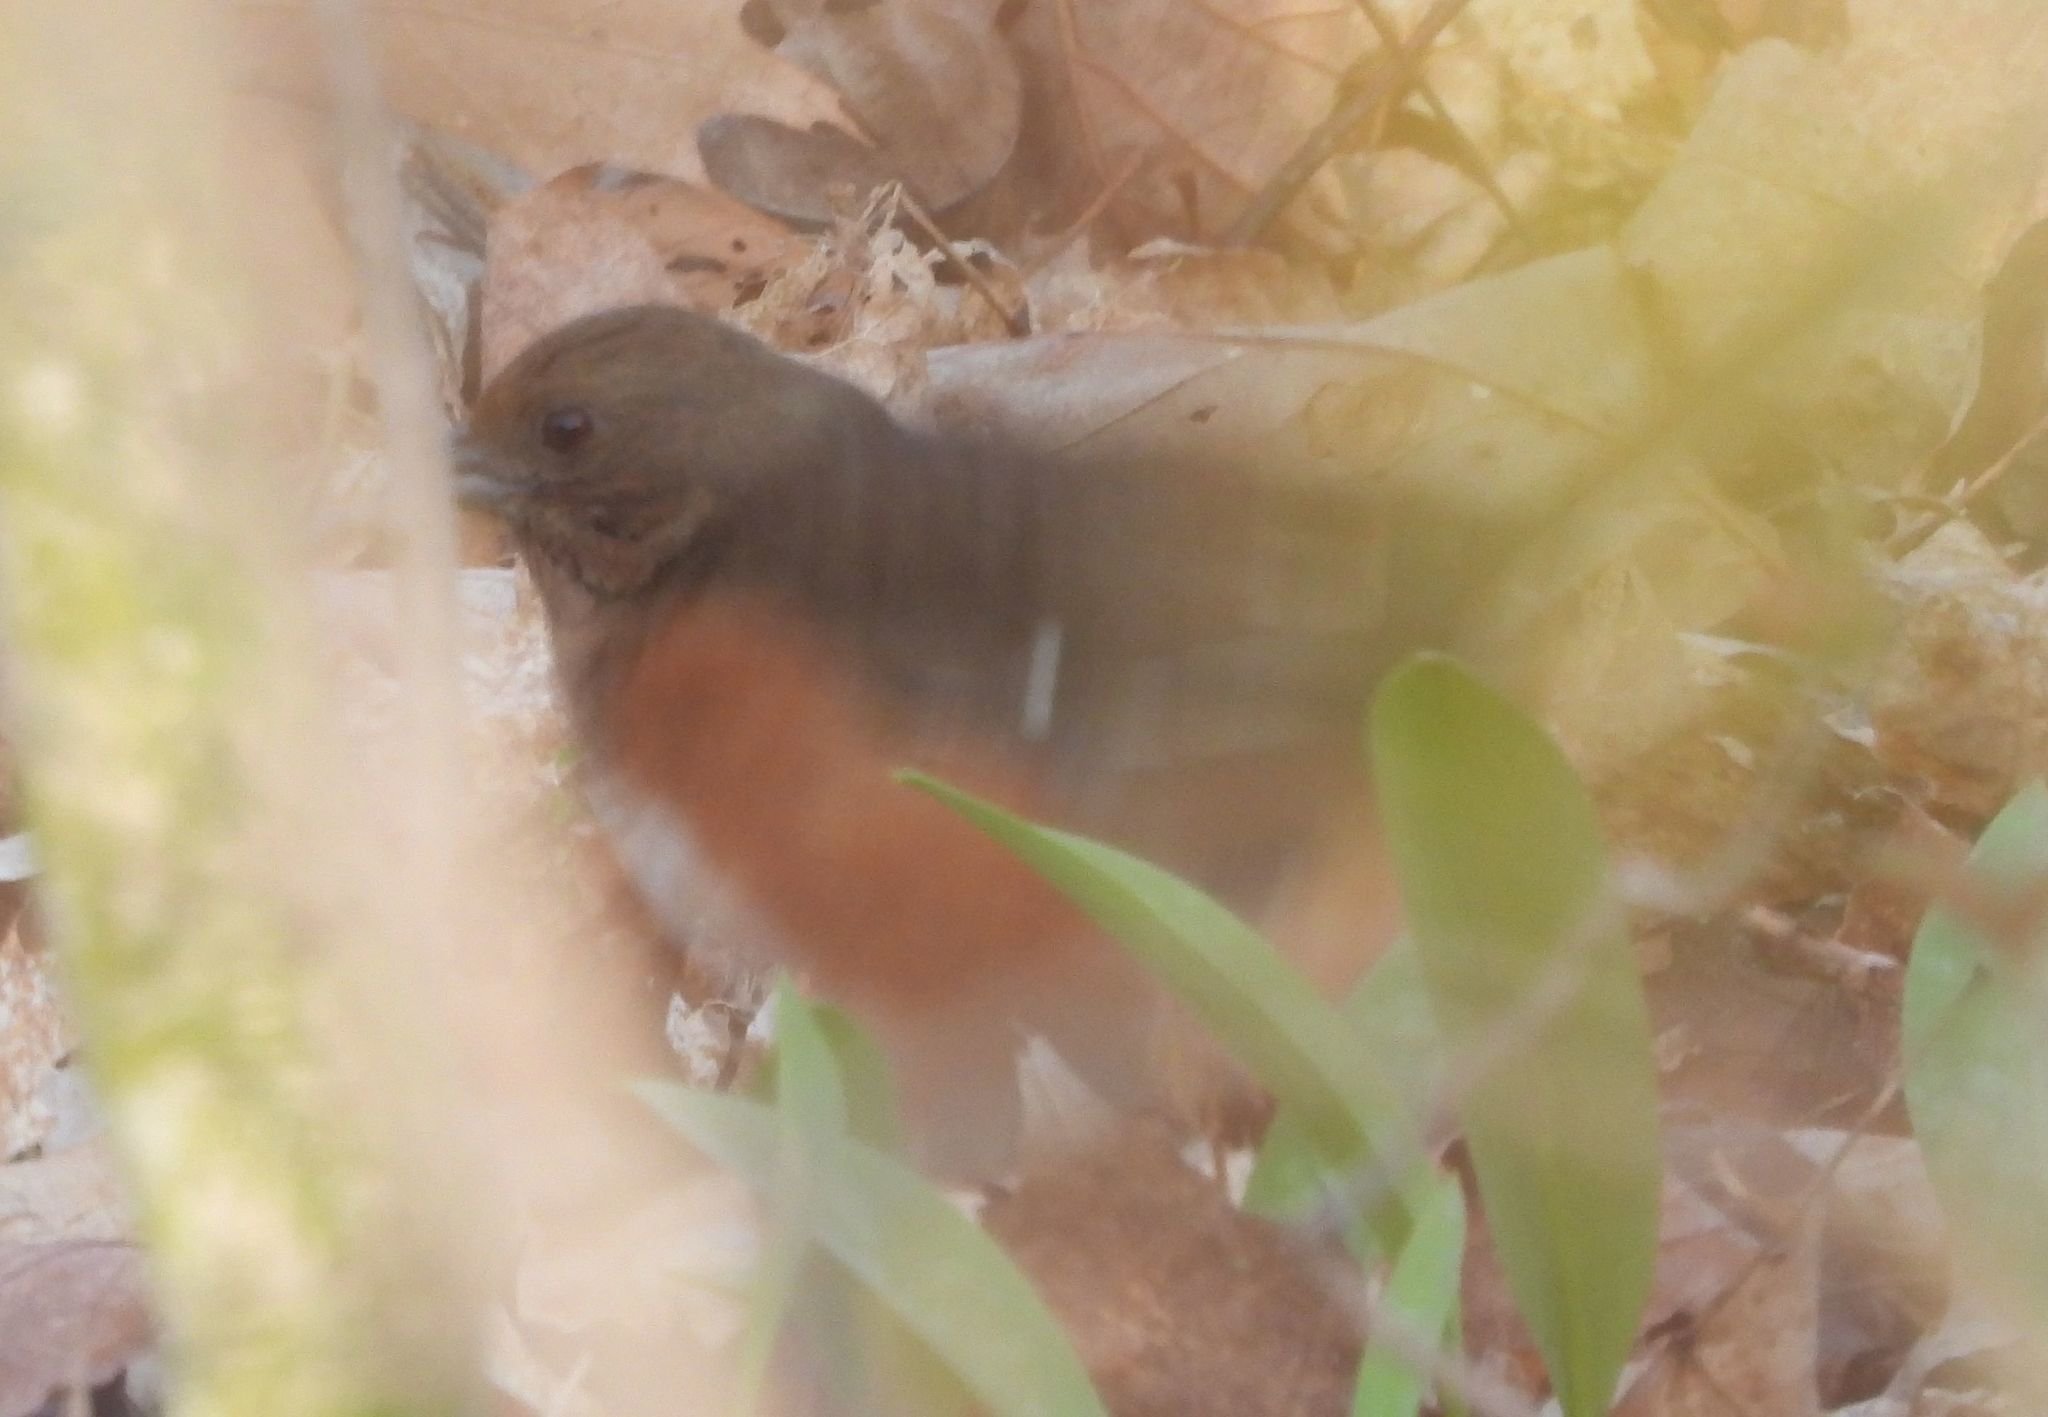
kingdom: Animalia
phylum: Chordata
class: Aves
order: Passeriformes
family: Passerellidae
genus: Pipilo
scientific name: Pipilo erythrophthalmus
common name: Eastern towhee
